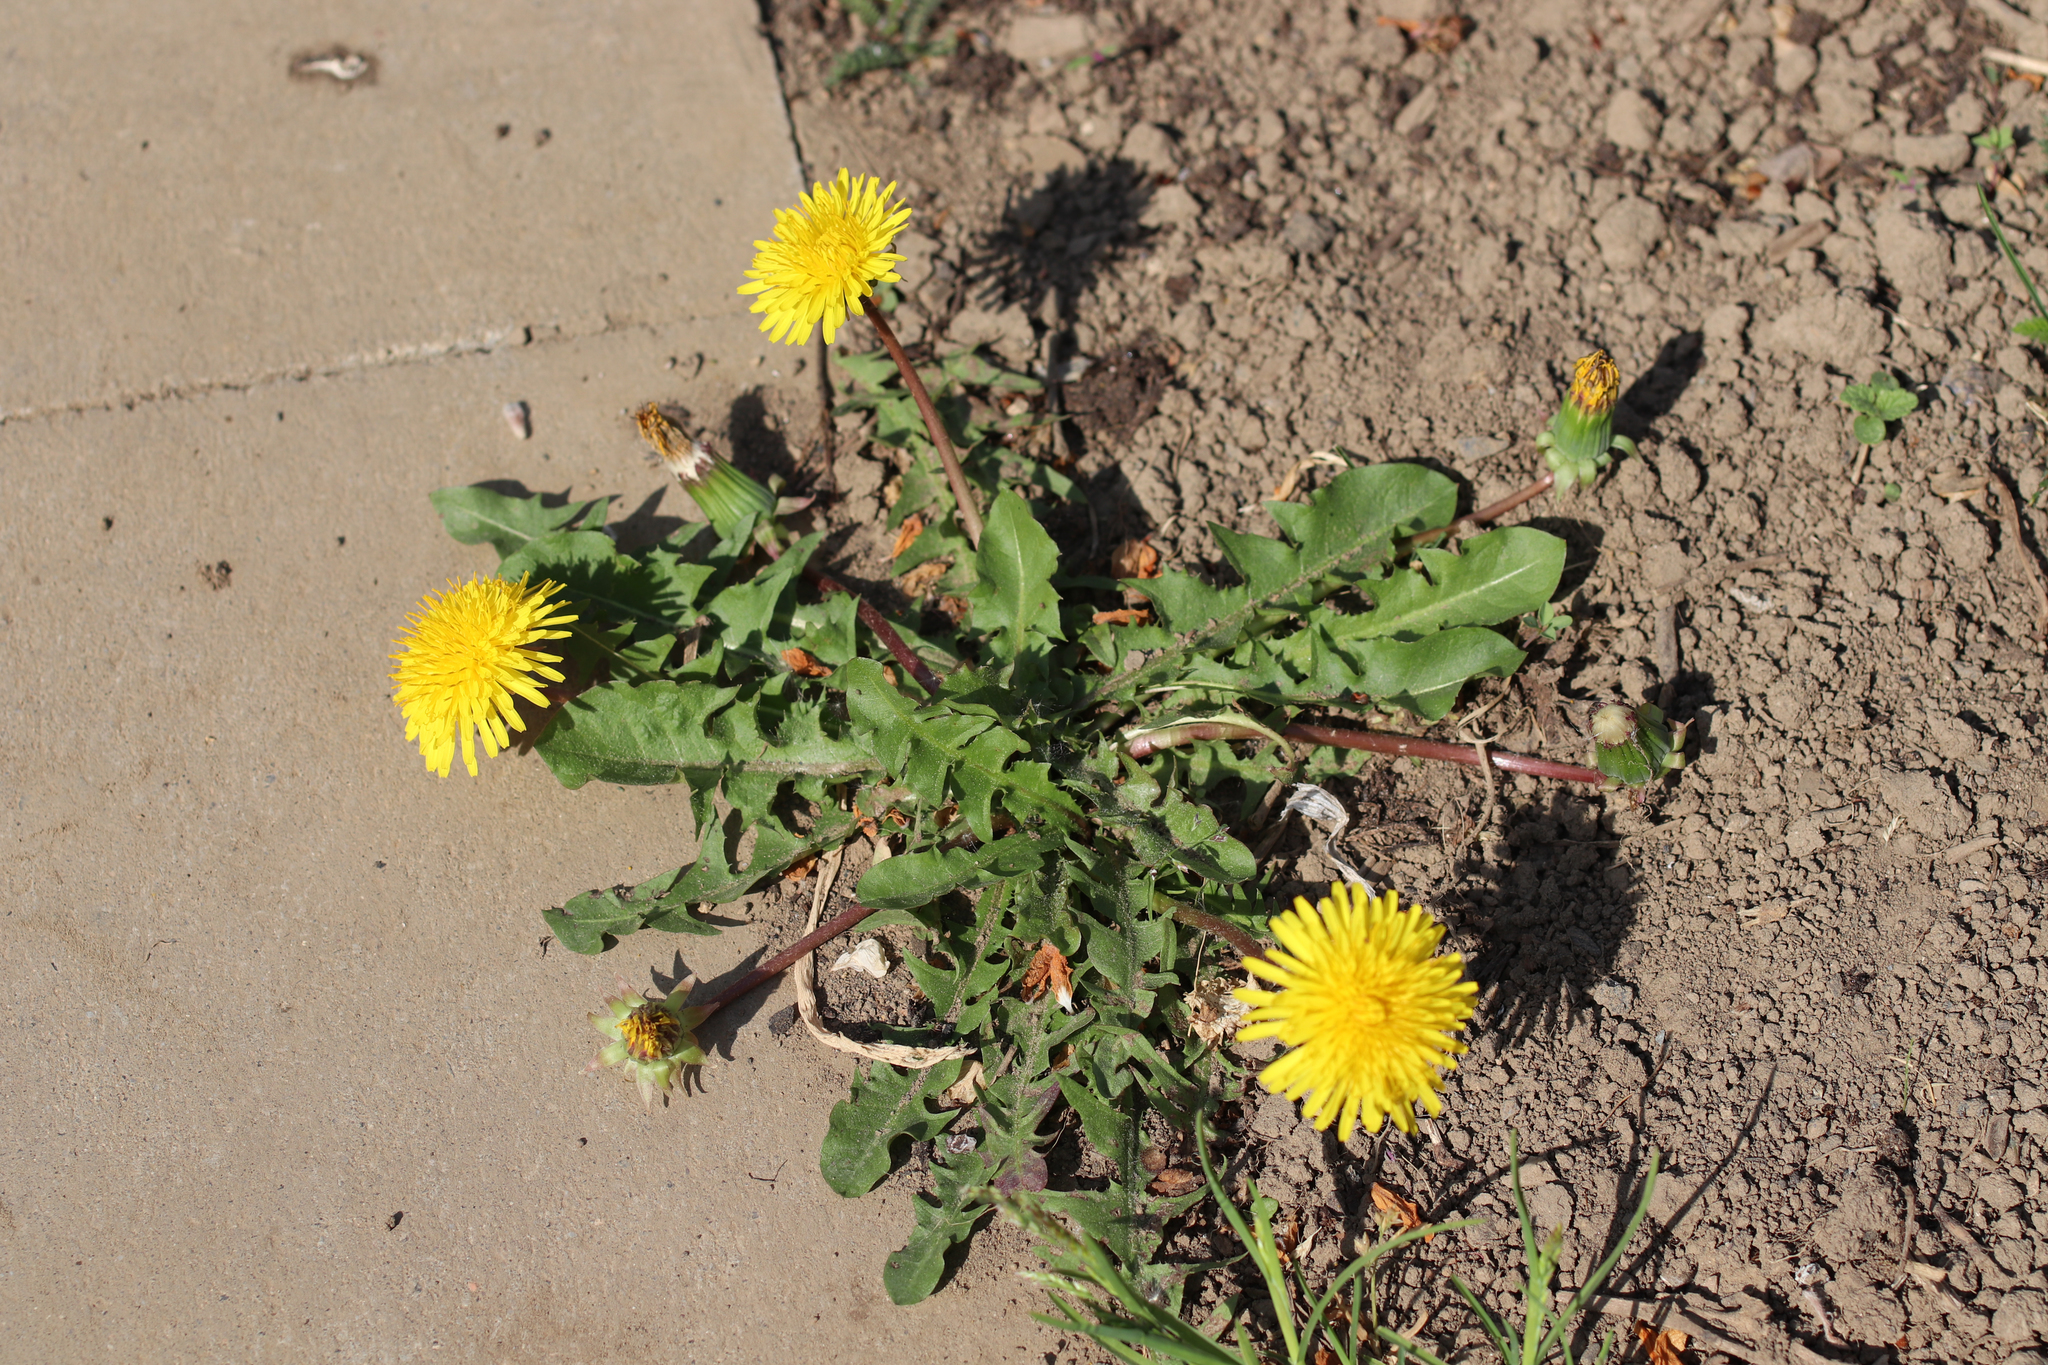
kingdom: Plantae
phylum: Tracheophyta
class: Magnoliopsida
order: Asterales
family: Asteraceae
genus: Taraxacum
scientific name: Taraxacum officinale
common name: Common dandelion
